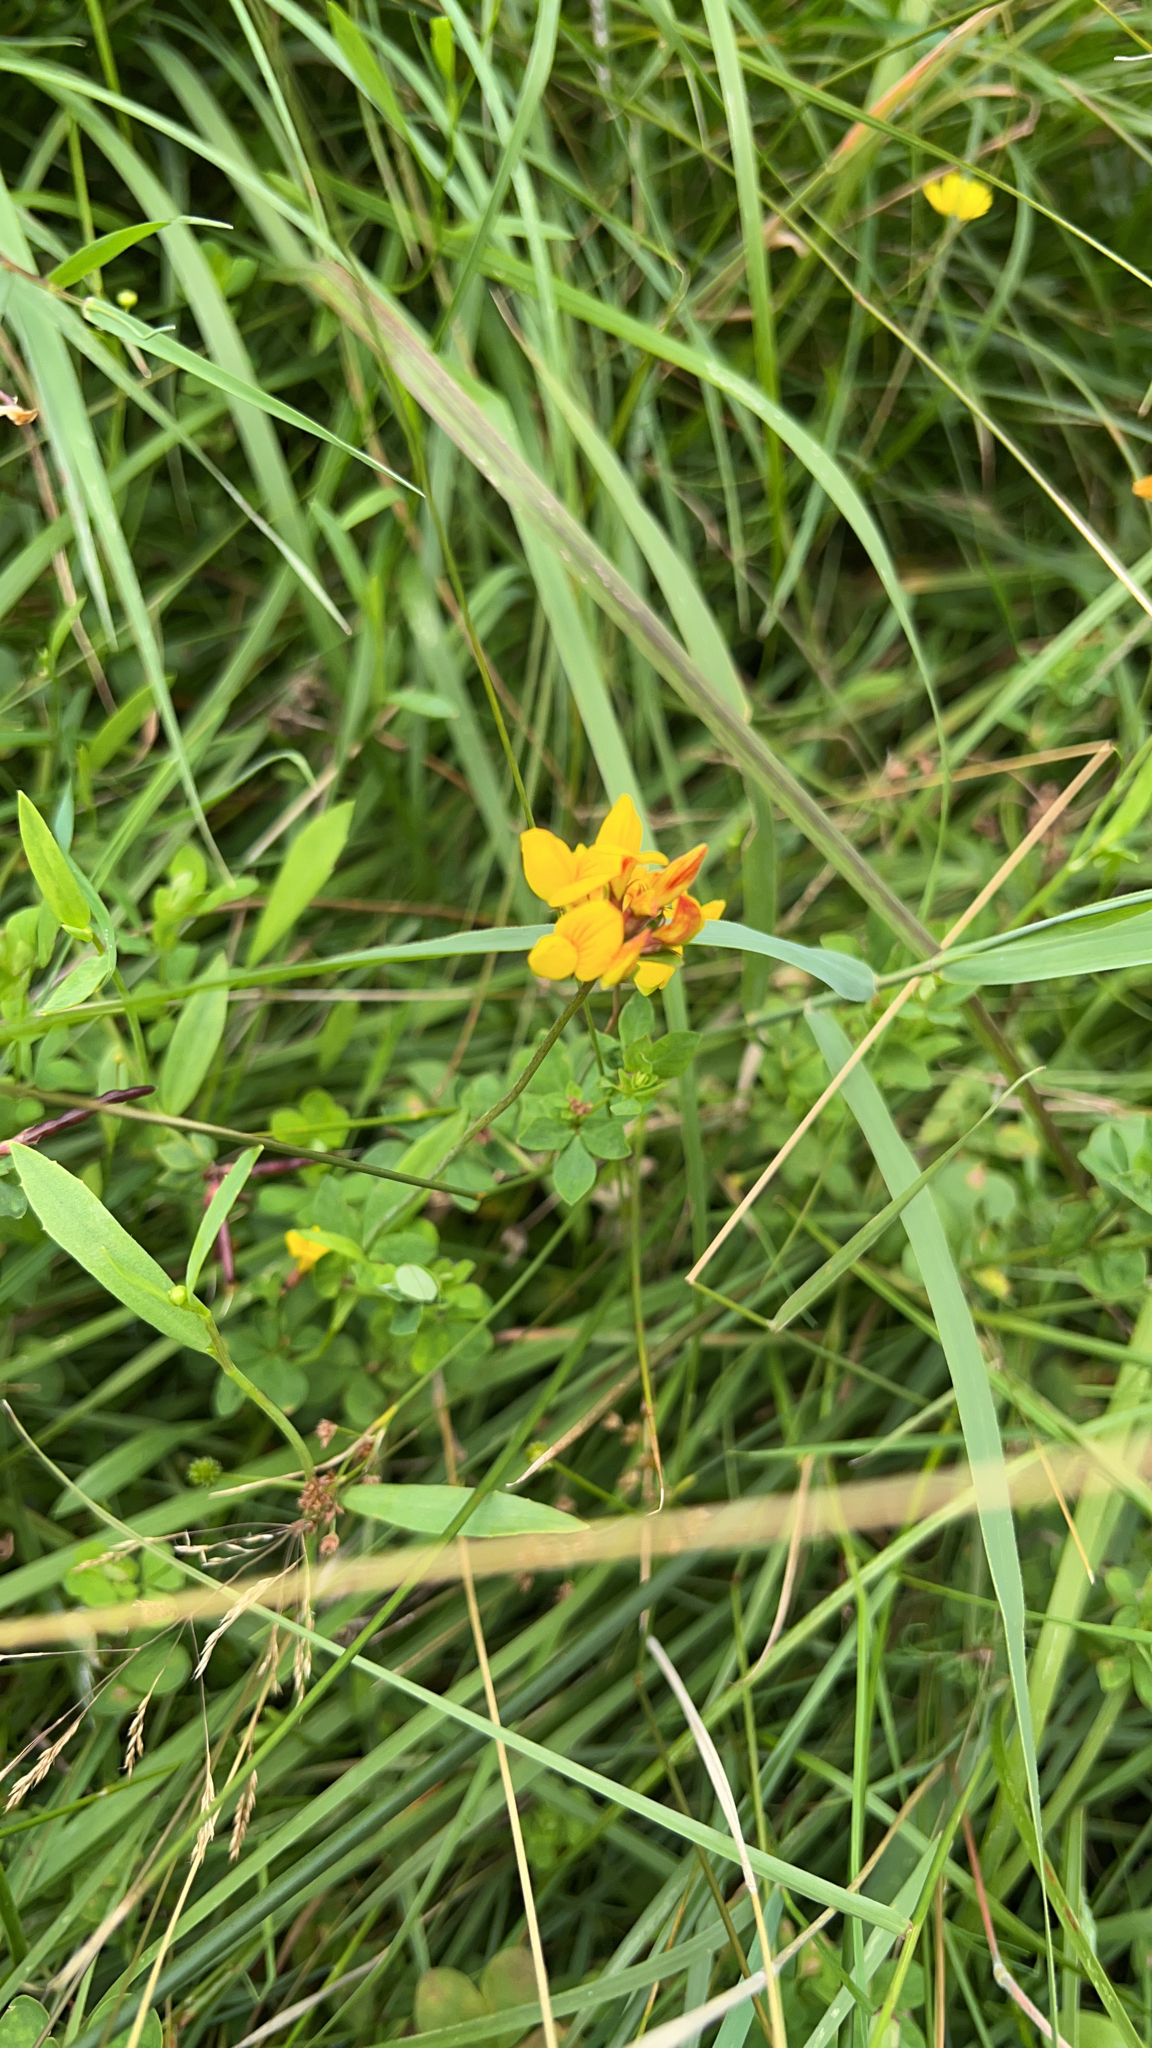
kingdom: Plantae
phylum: Tracheophyta
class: Magnoliopsida
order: Fabales
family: Fabaceae
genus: Lotus
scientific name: Lotus pedunculatus
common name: Greater birdsfoot-trefoil
